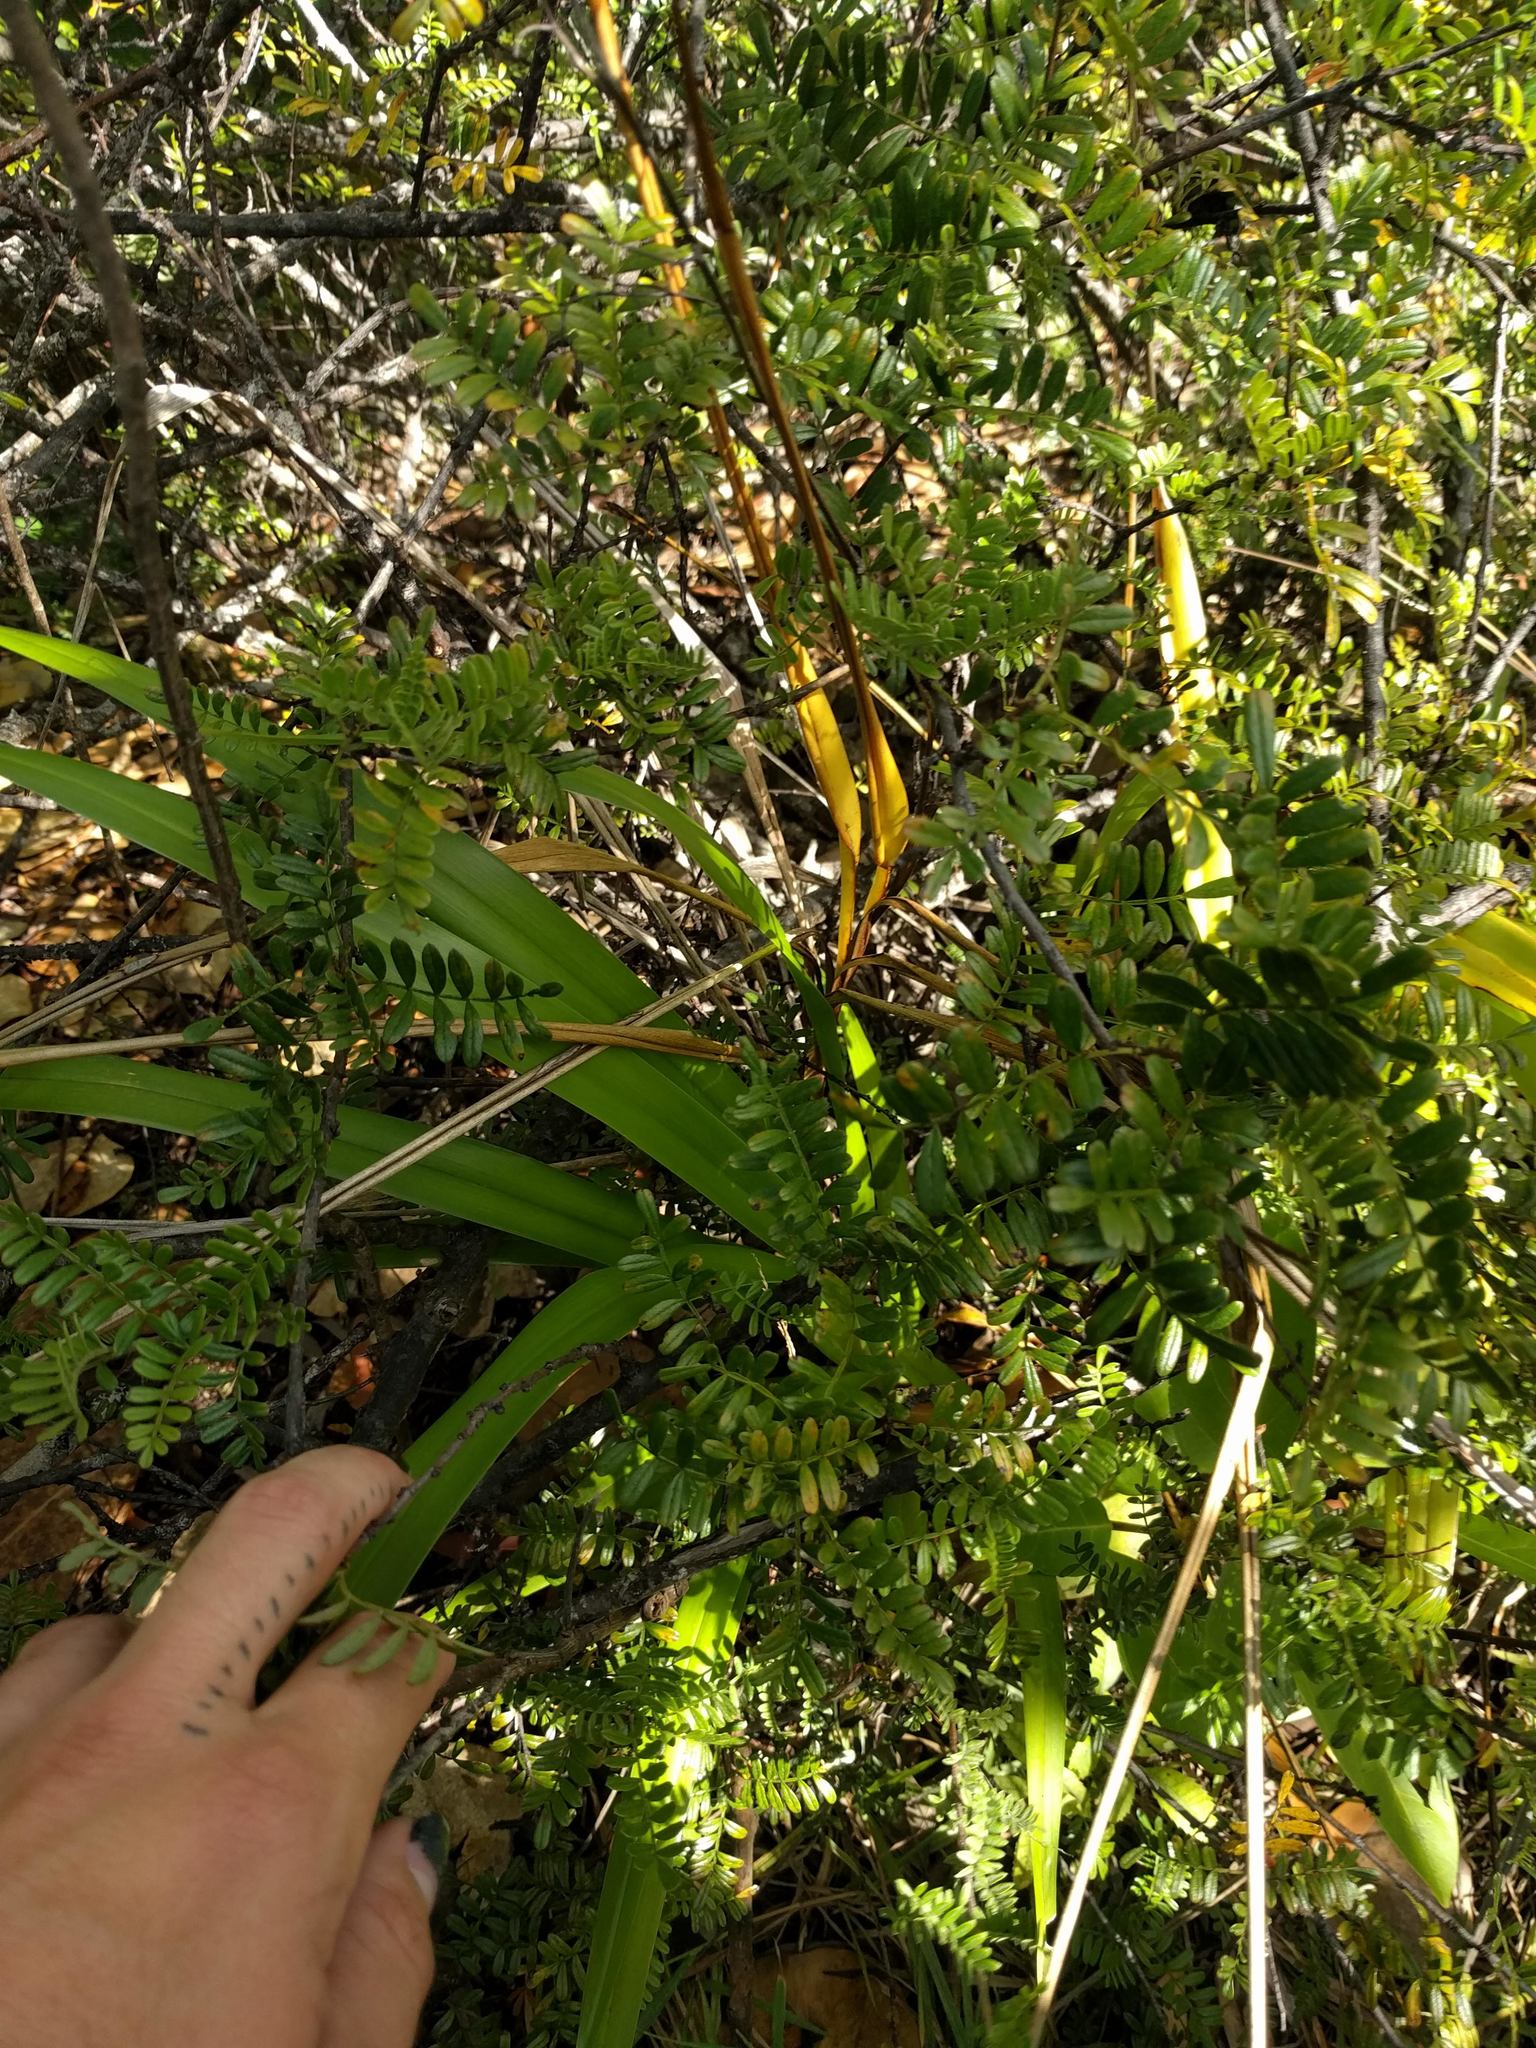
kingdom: Plantae
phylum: Tracheophyta
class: Magnoliopsida
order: Rosales
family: Rosaceae
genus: Osteomeles
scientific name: Osteomeles anthyllidifolia
